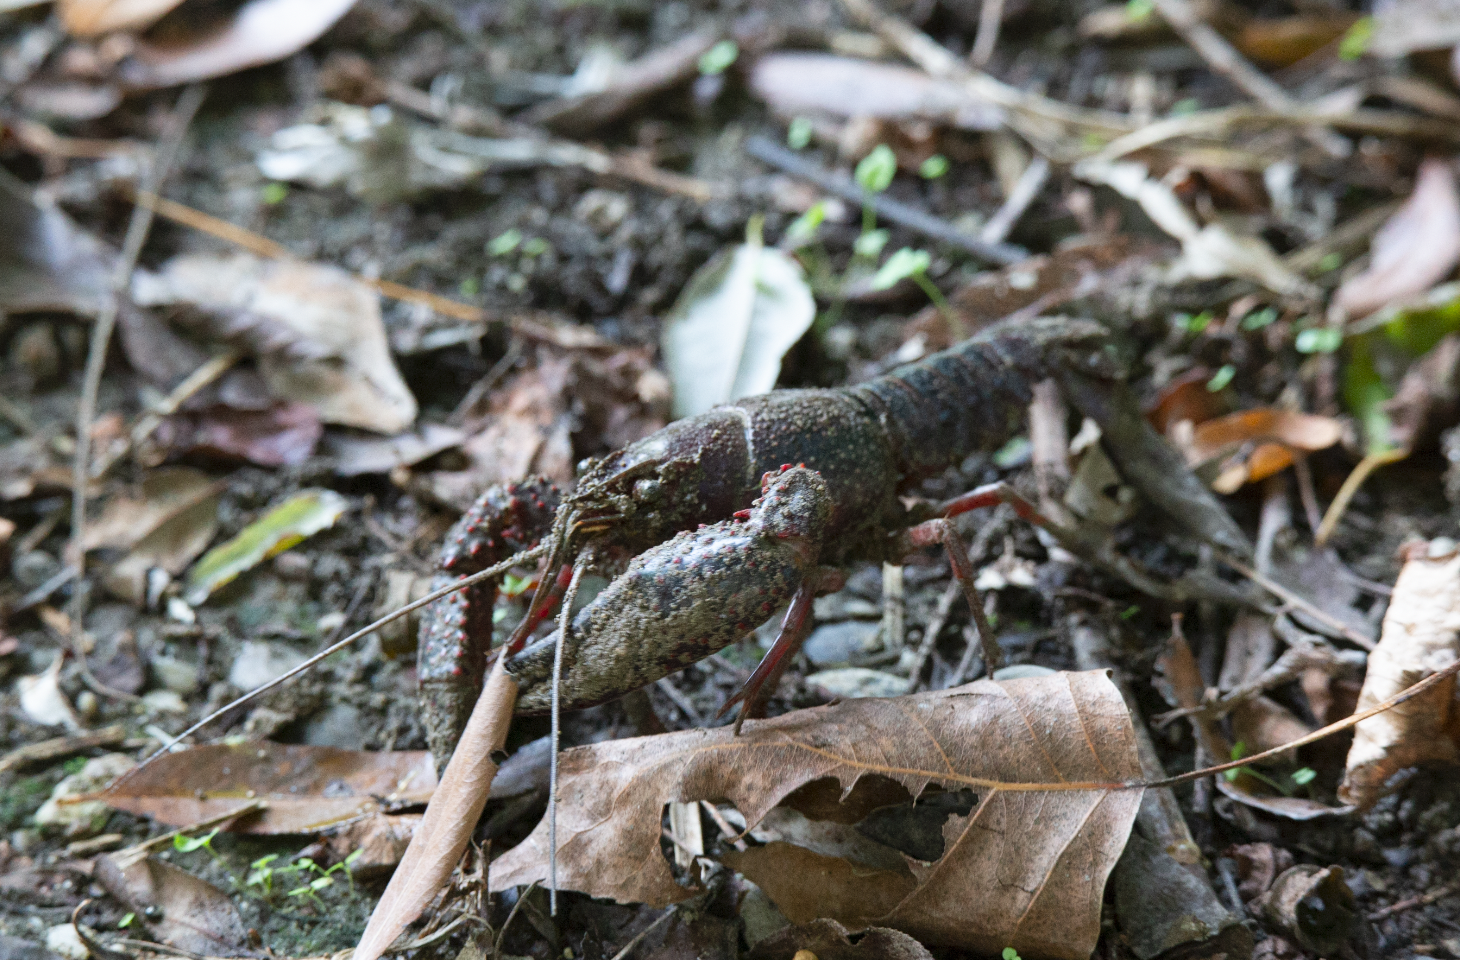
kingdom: Animalia
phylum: Arthropoda
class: Malacostraca
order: Decapoda
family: Cambaridae
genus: Procambarus
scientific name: Procambarus clarkii
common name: Red swamp crayfish
